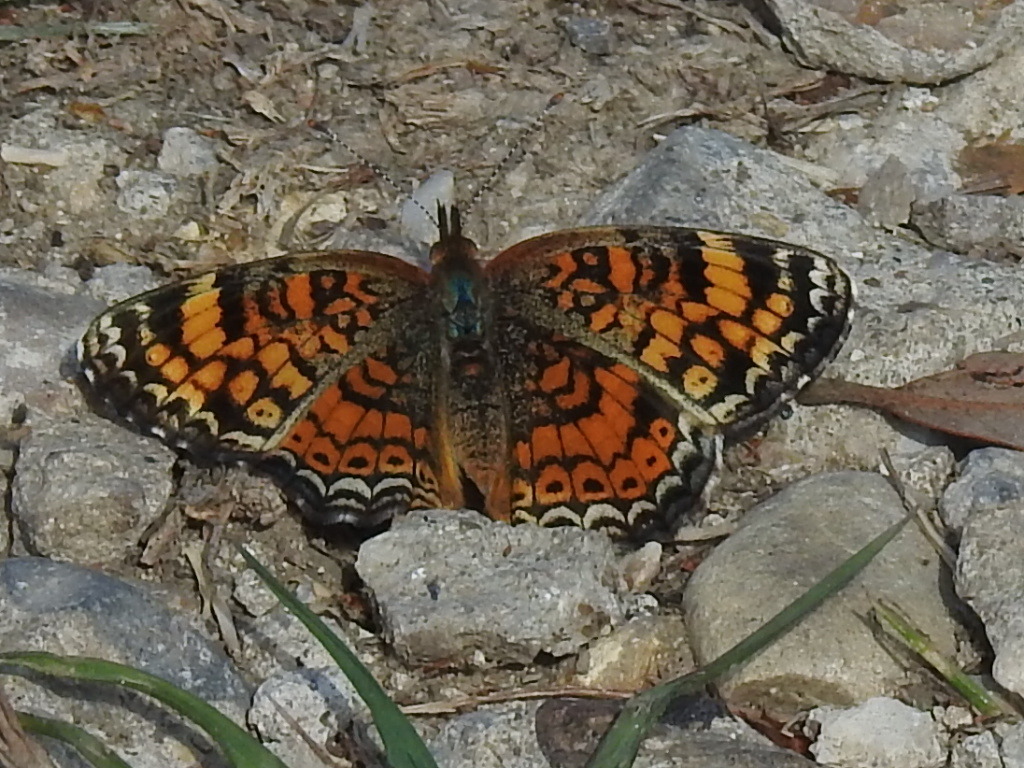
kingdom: Animalia
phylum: Arthropoda
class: Insecta
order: Lepidoptera
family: Nymphalidae
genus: Phyciodes
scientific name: Phyciodes tharos
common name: Pearl crescent
